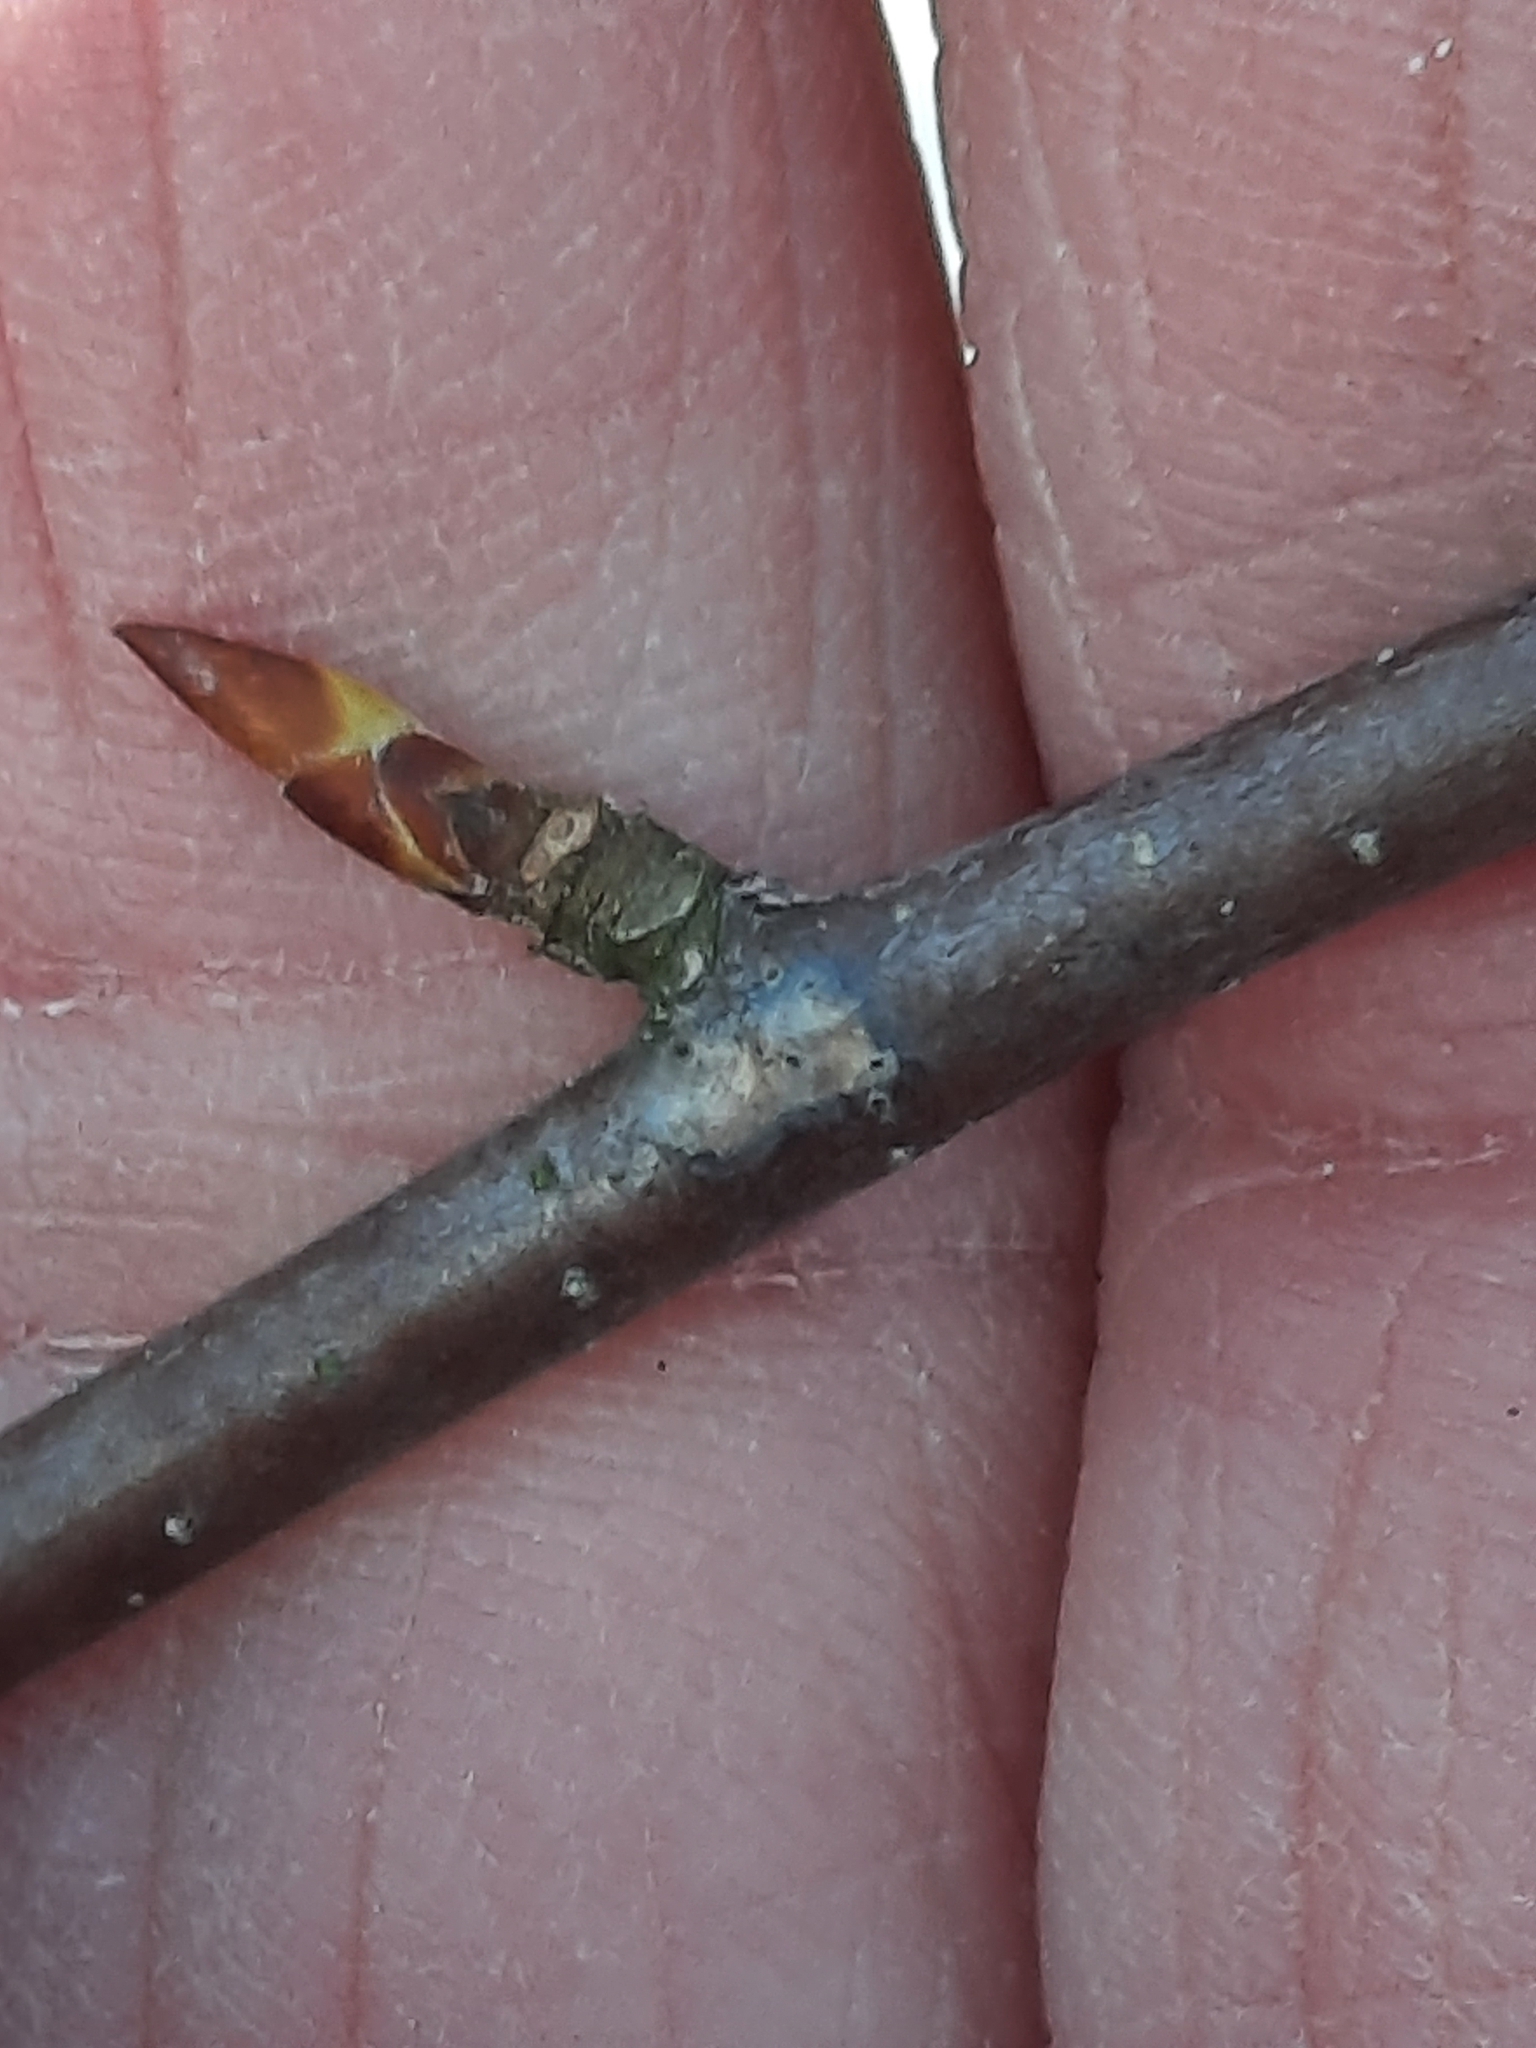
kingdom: Plantae
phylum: Tracheophyta
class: Magnoliopsida
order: Fagales
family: Betulaceae
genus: Betula
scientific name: Betula lenta
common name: Black birch
